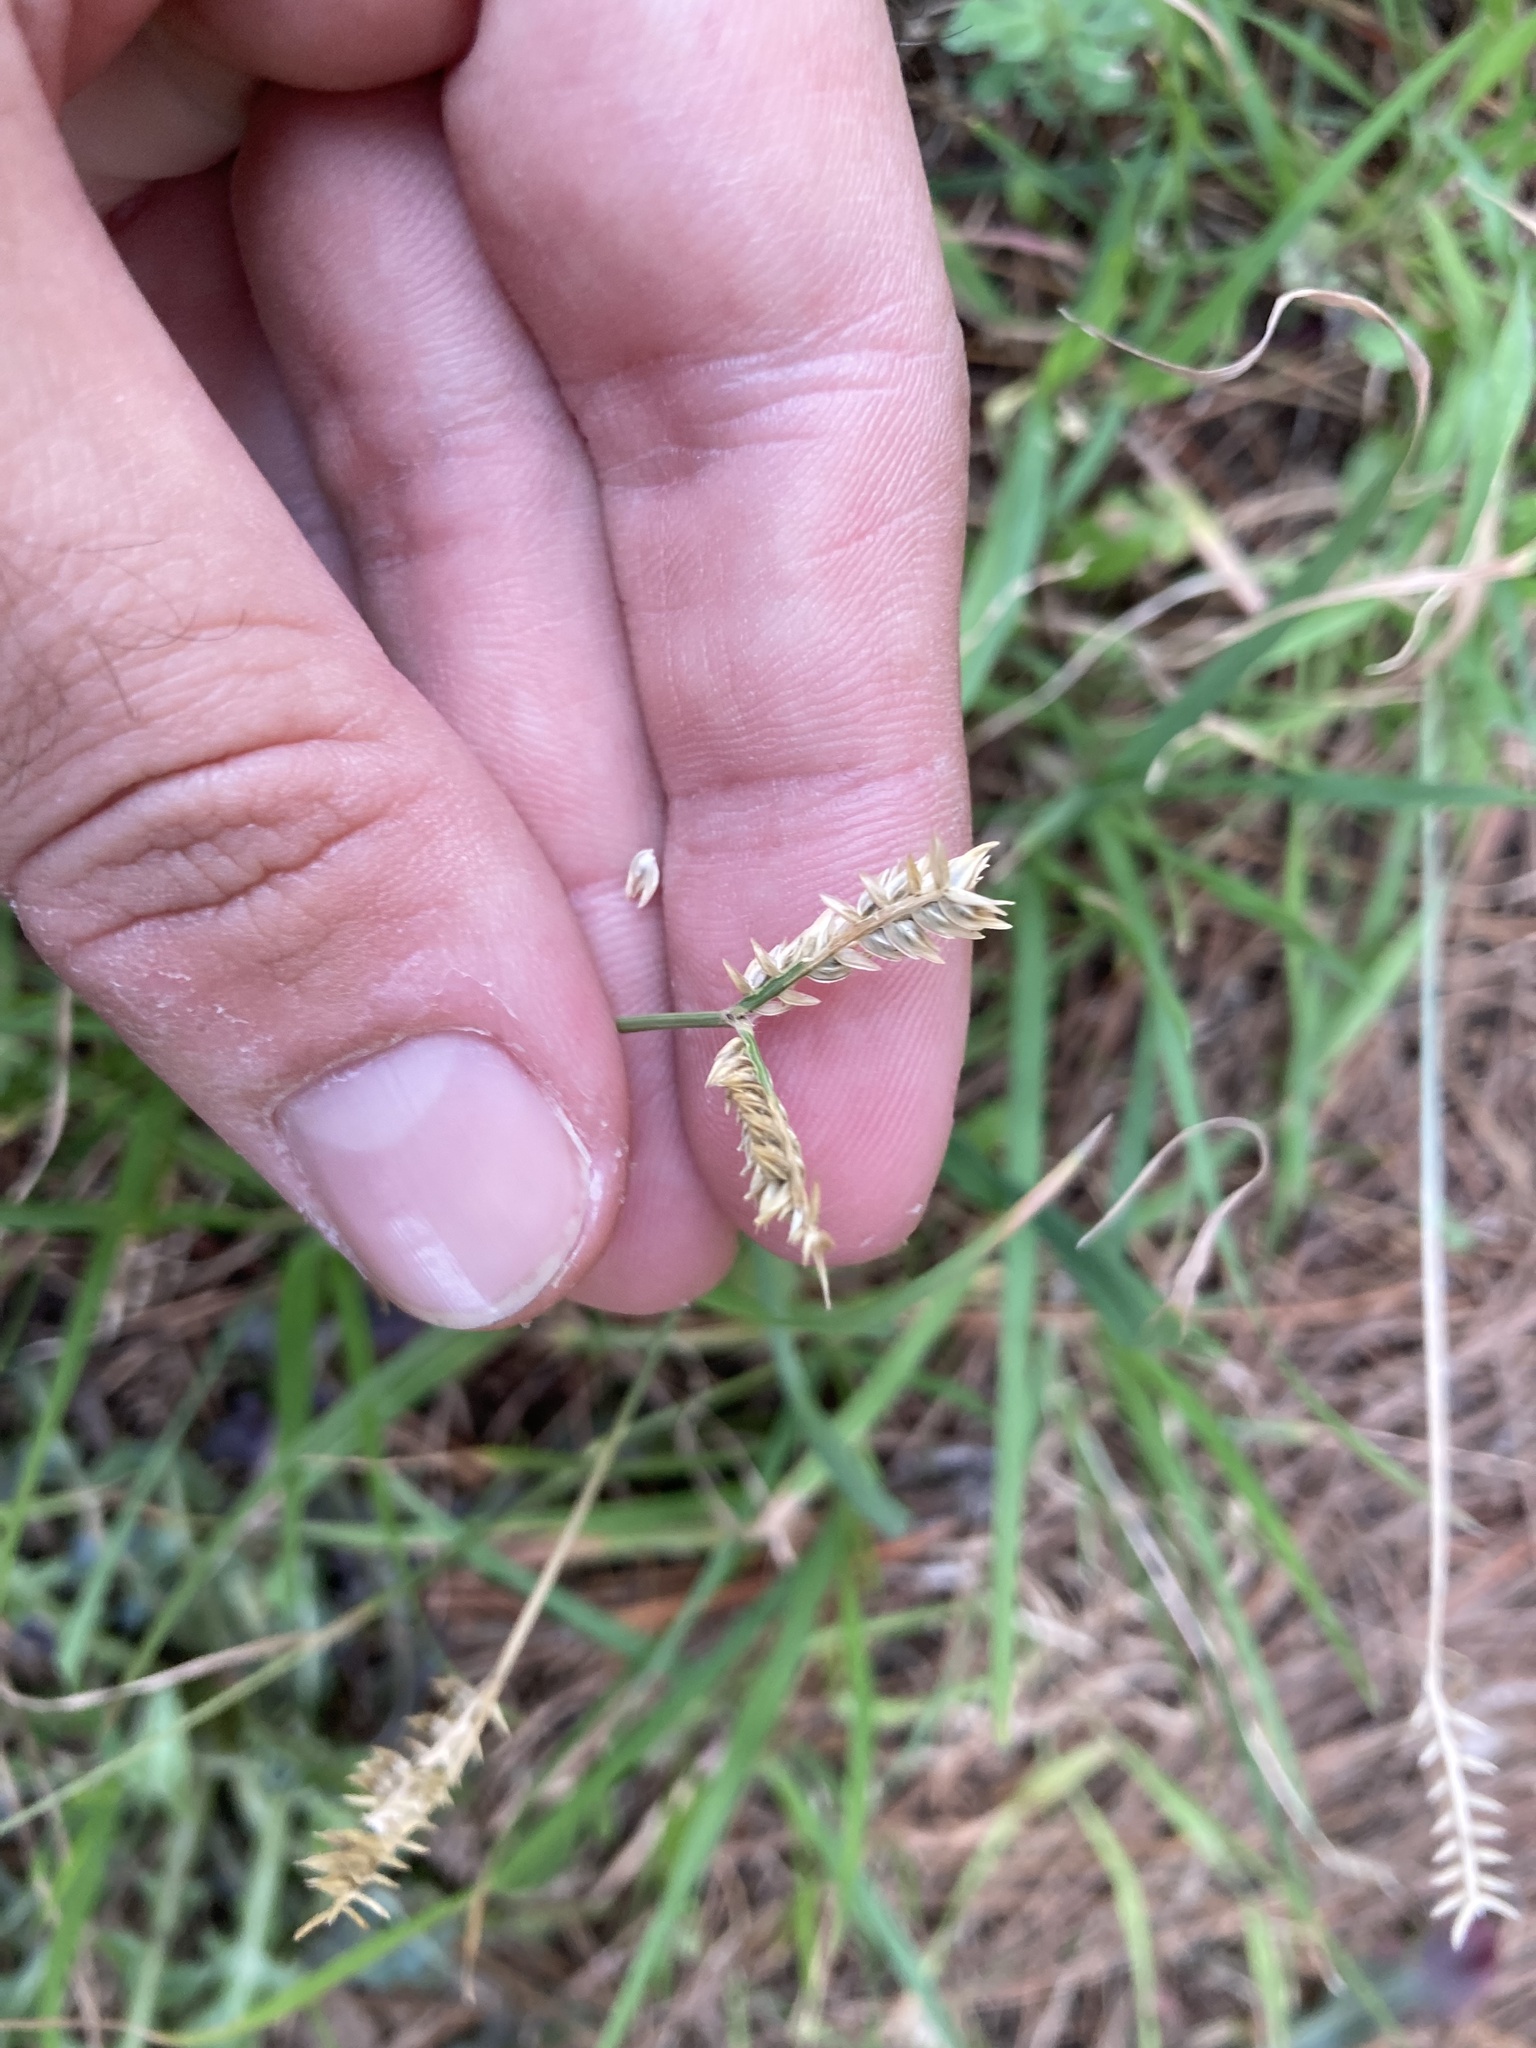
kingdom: Plantae
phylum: Tracheophyta
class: Liliopsida
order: Poales
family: Poaceae
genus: Eleusine
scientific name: Eleusine tristachya
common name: American yard-grass
